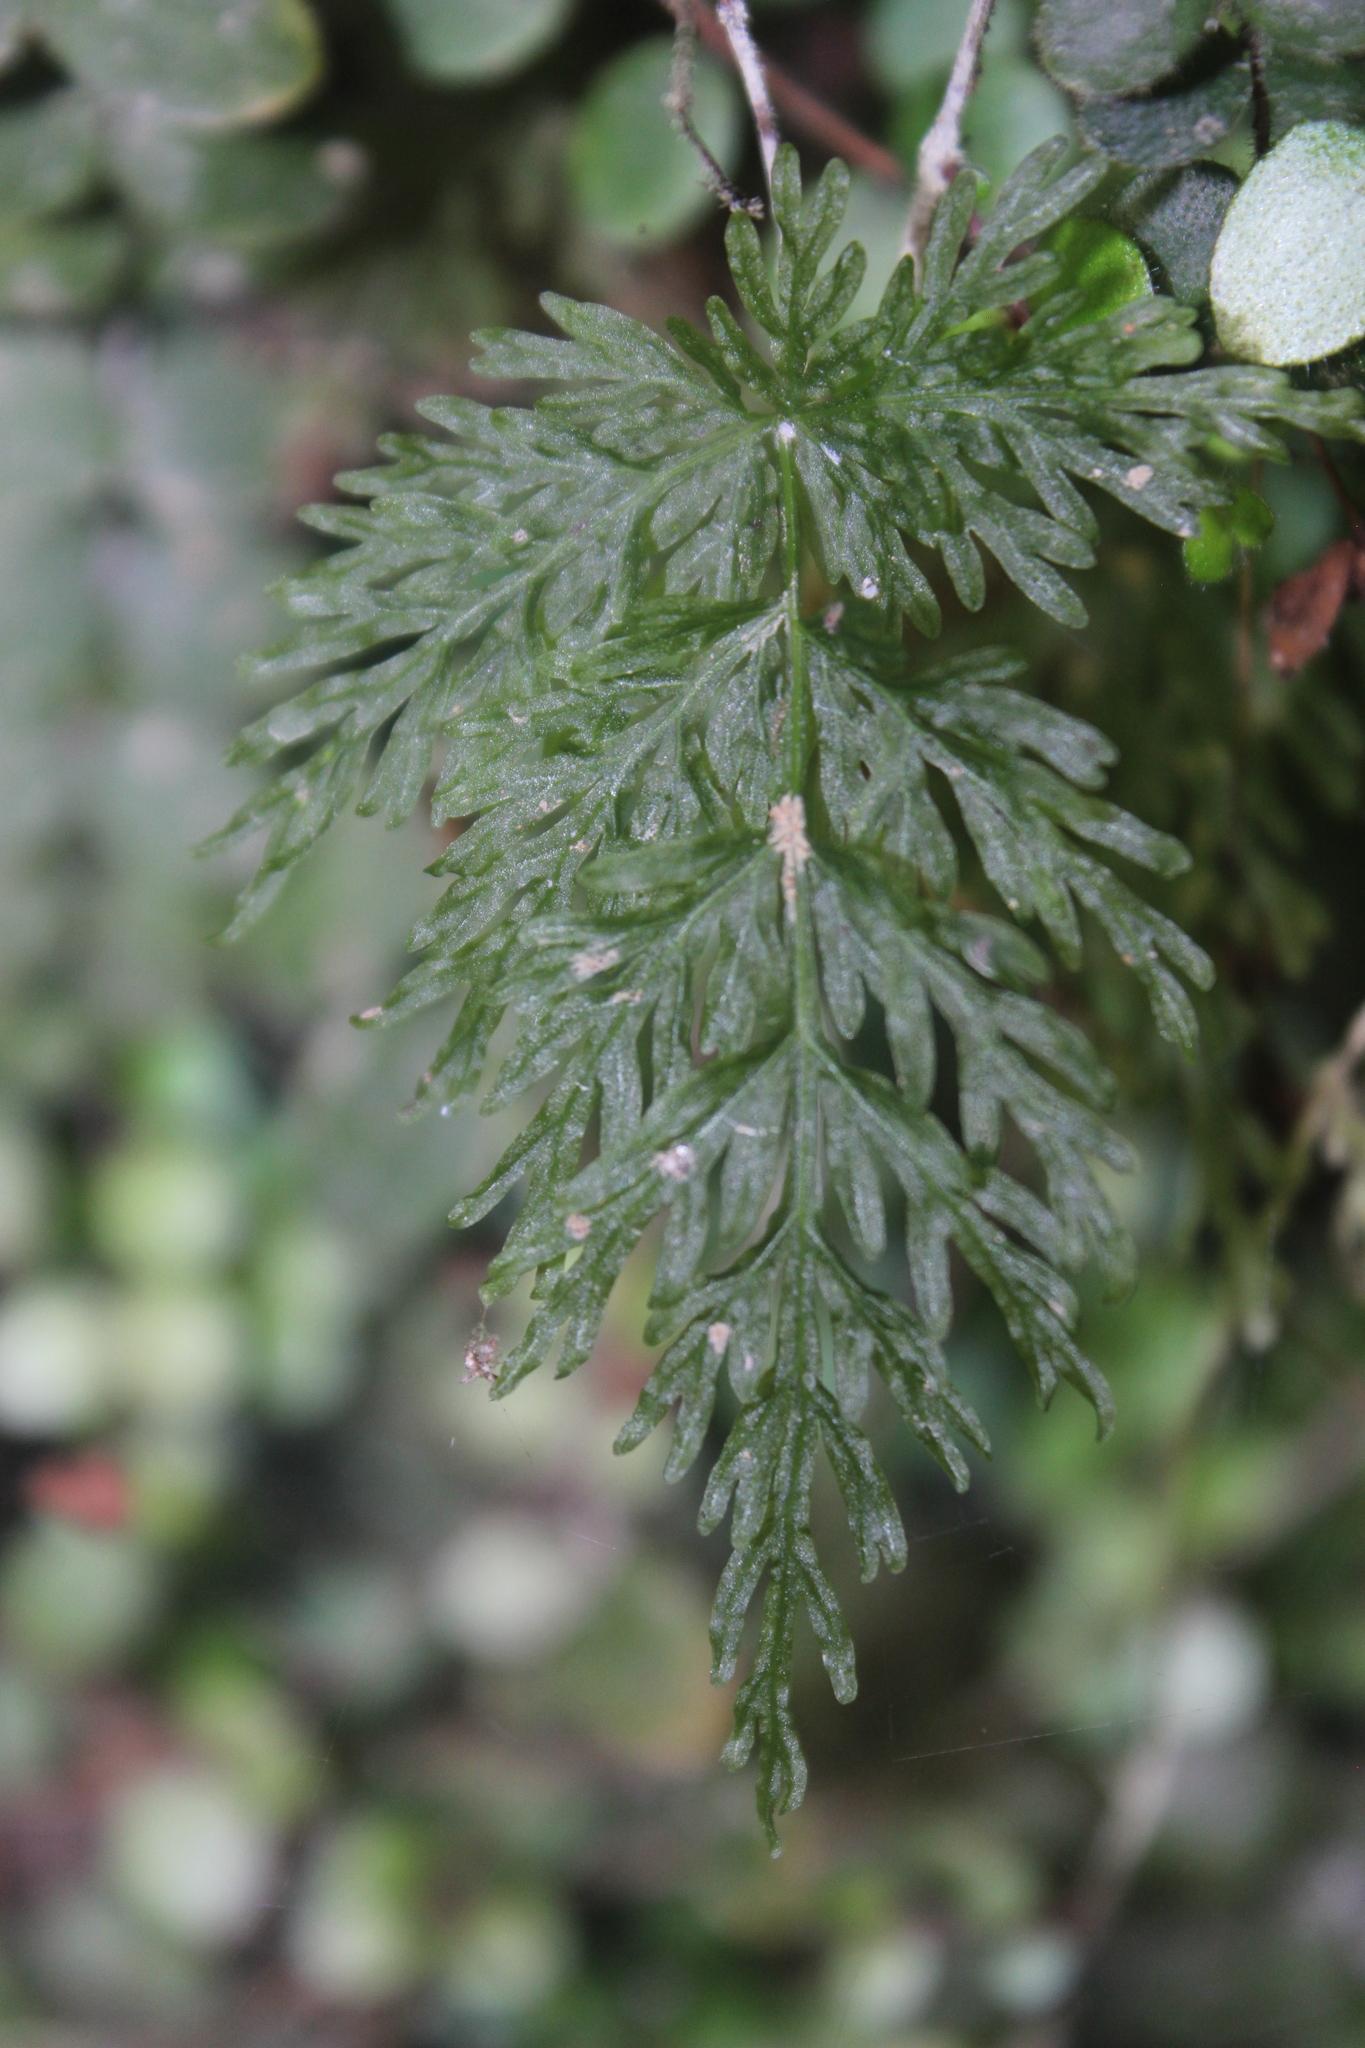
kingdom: Plantae
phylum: Tracheophyta
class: Polypodiopsida
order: Osmundales
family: Osmundaceae
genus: Leptopteris
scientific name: Leptopteris hymenophylloides
